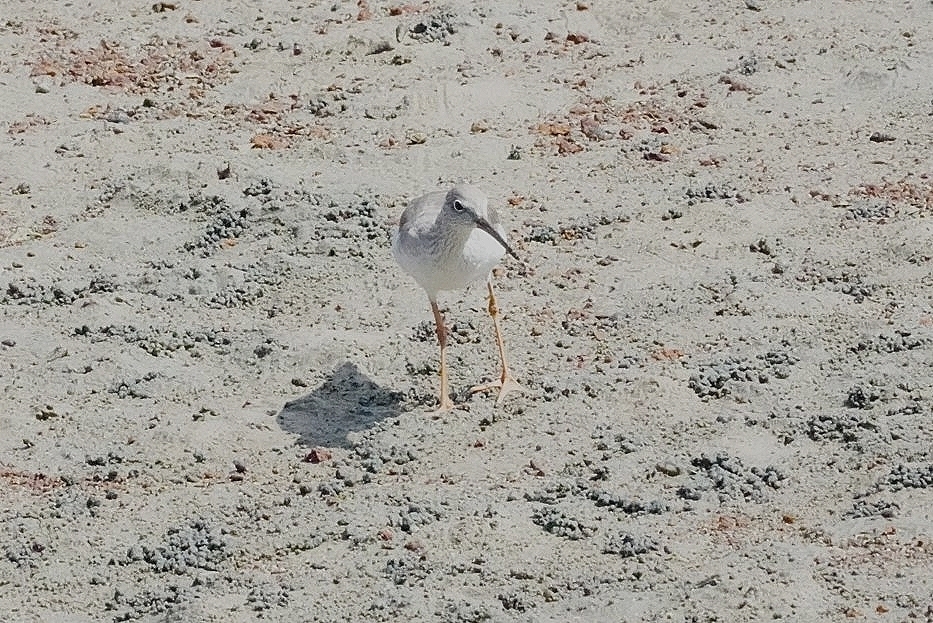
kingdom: Animalia
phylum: Chordata
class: Aves
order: Charadriiformes
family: Scolopacidae
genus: Tringa
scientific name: Tringa totanus
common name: Common redshank
